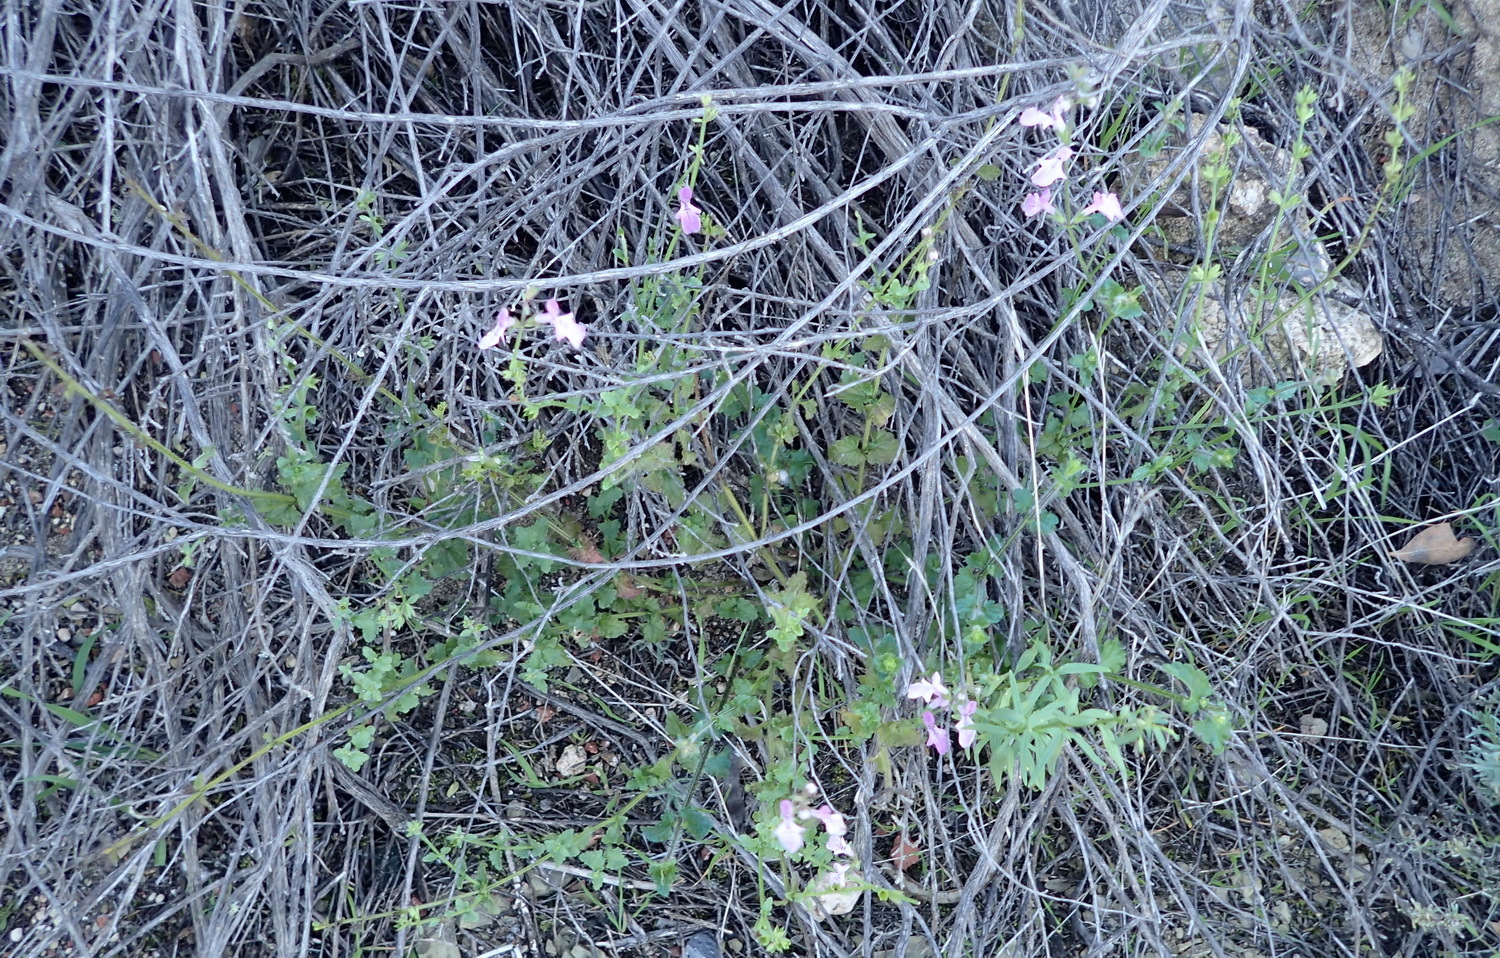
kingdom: Plantae
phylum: Tracheophyta
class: Magnoliopsida
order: Lamiales
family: Lamiaceae
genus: Stachys
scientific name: Stachys aethiopica
